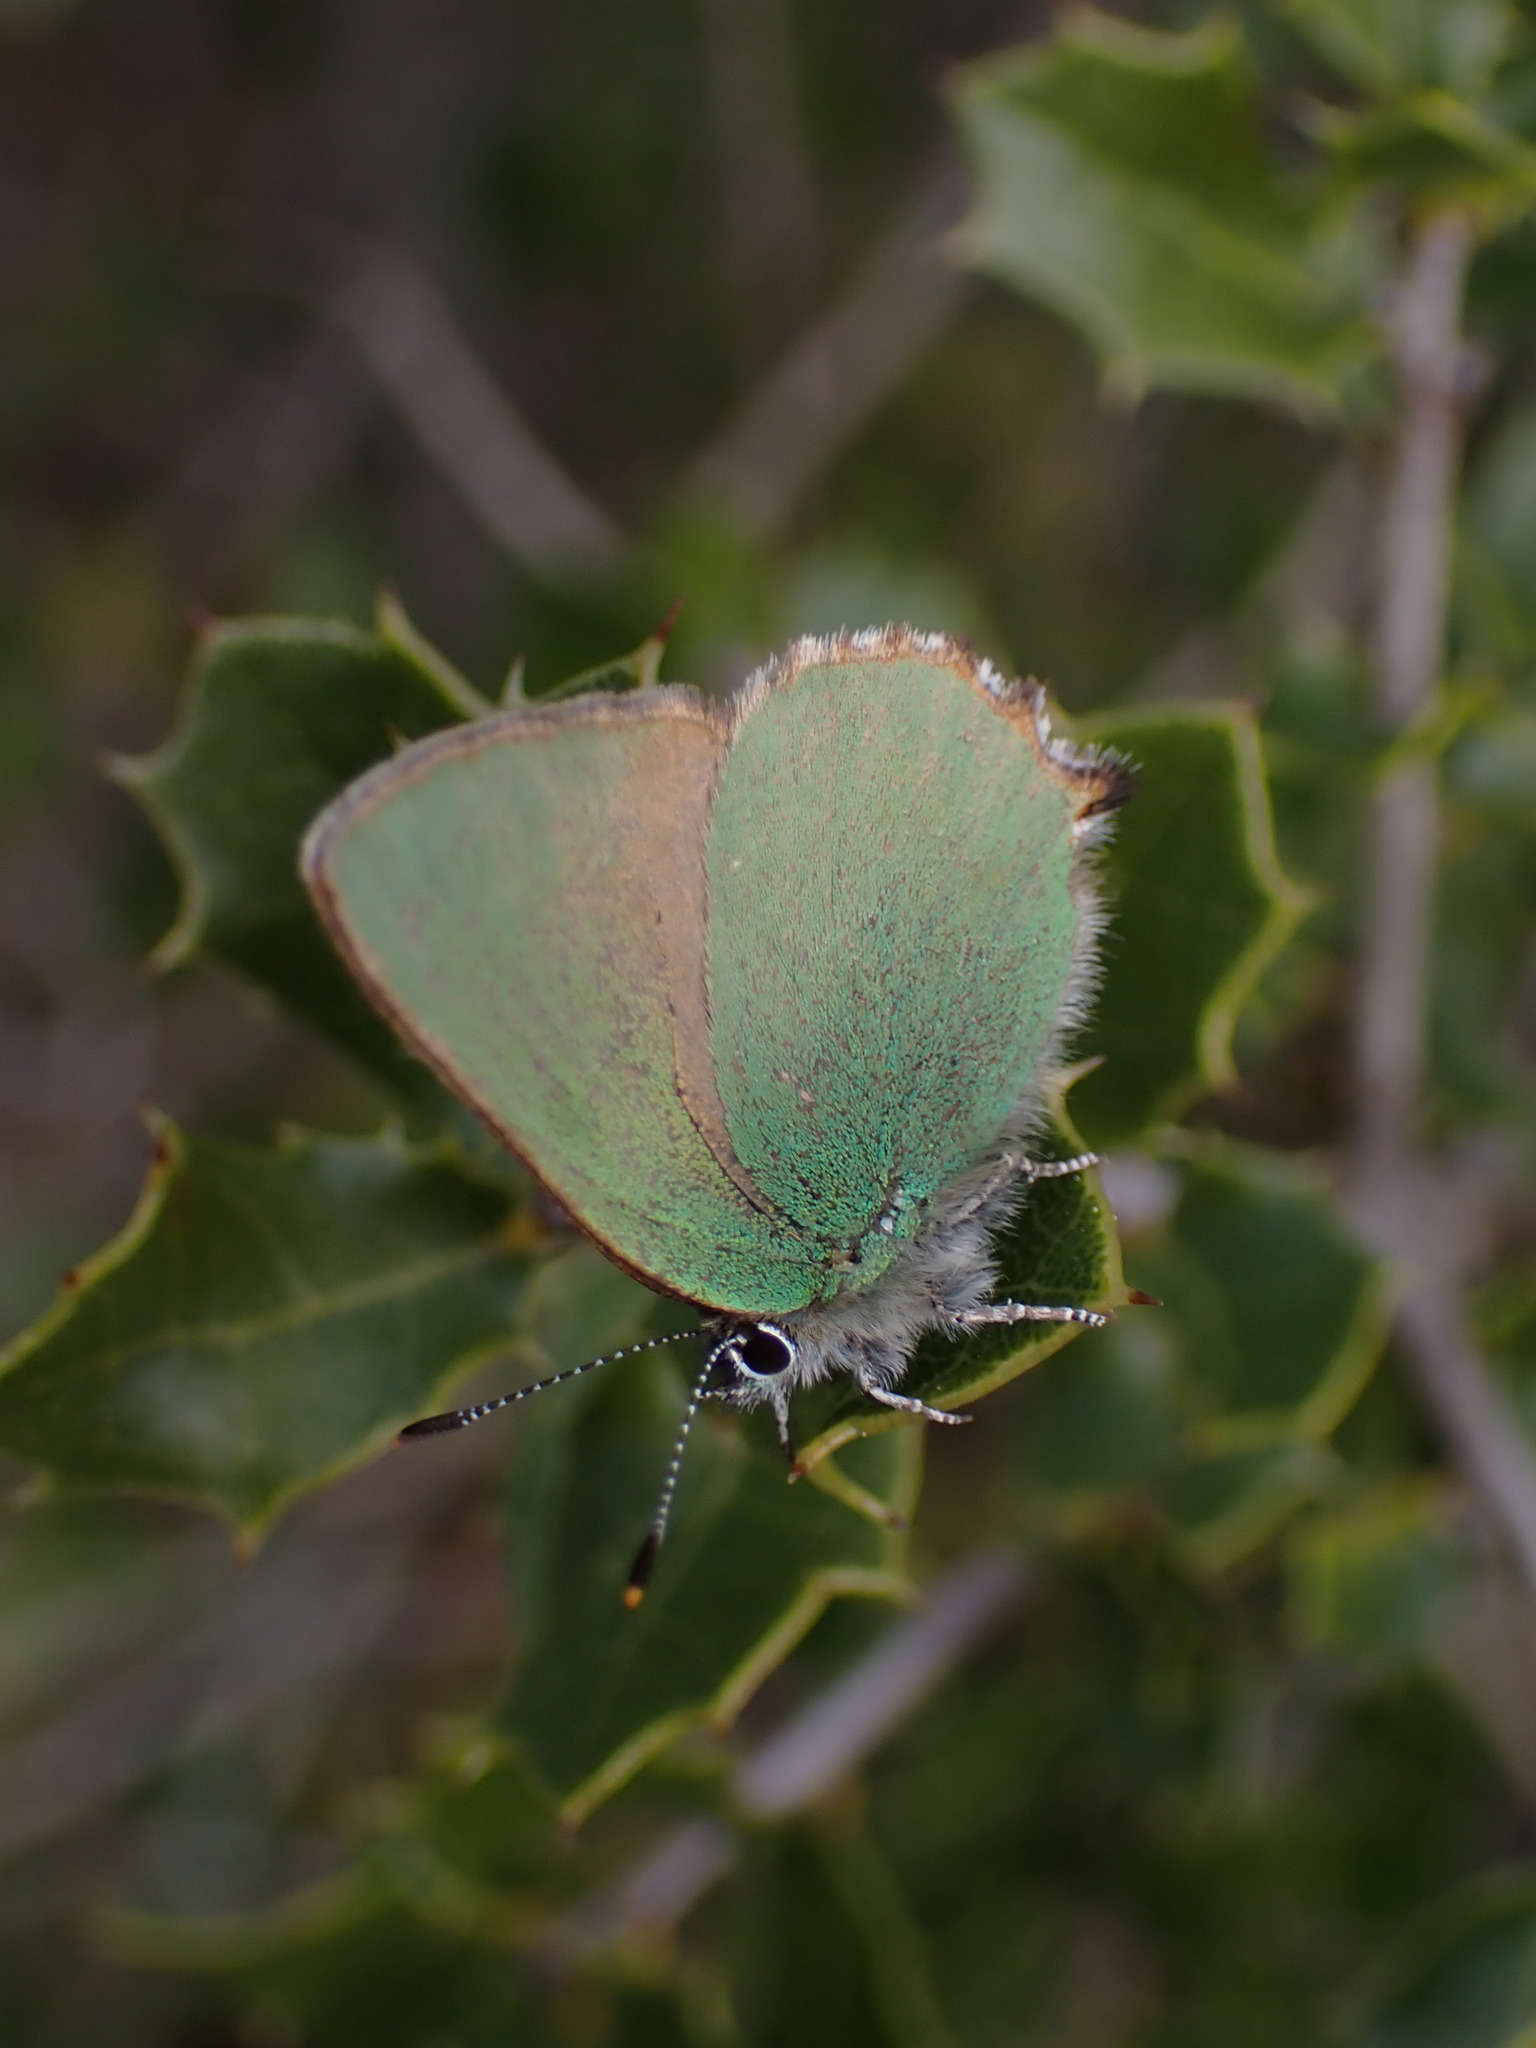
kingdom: Animalia
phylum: Arthropoda
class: Insecta
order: Lepidoptera
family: Lycaenidae
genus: Callophrys
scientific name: Callophrys rubi
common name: Green hairstreak
